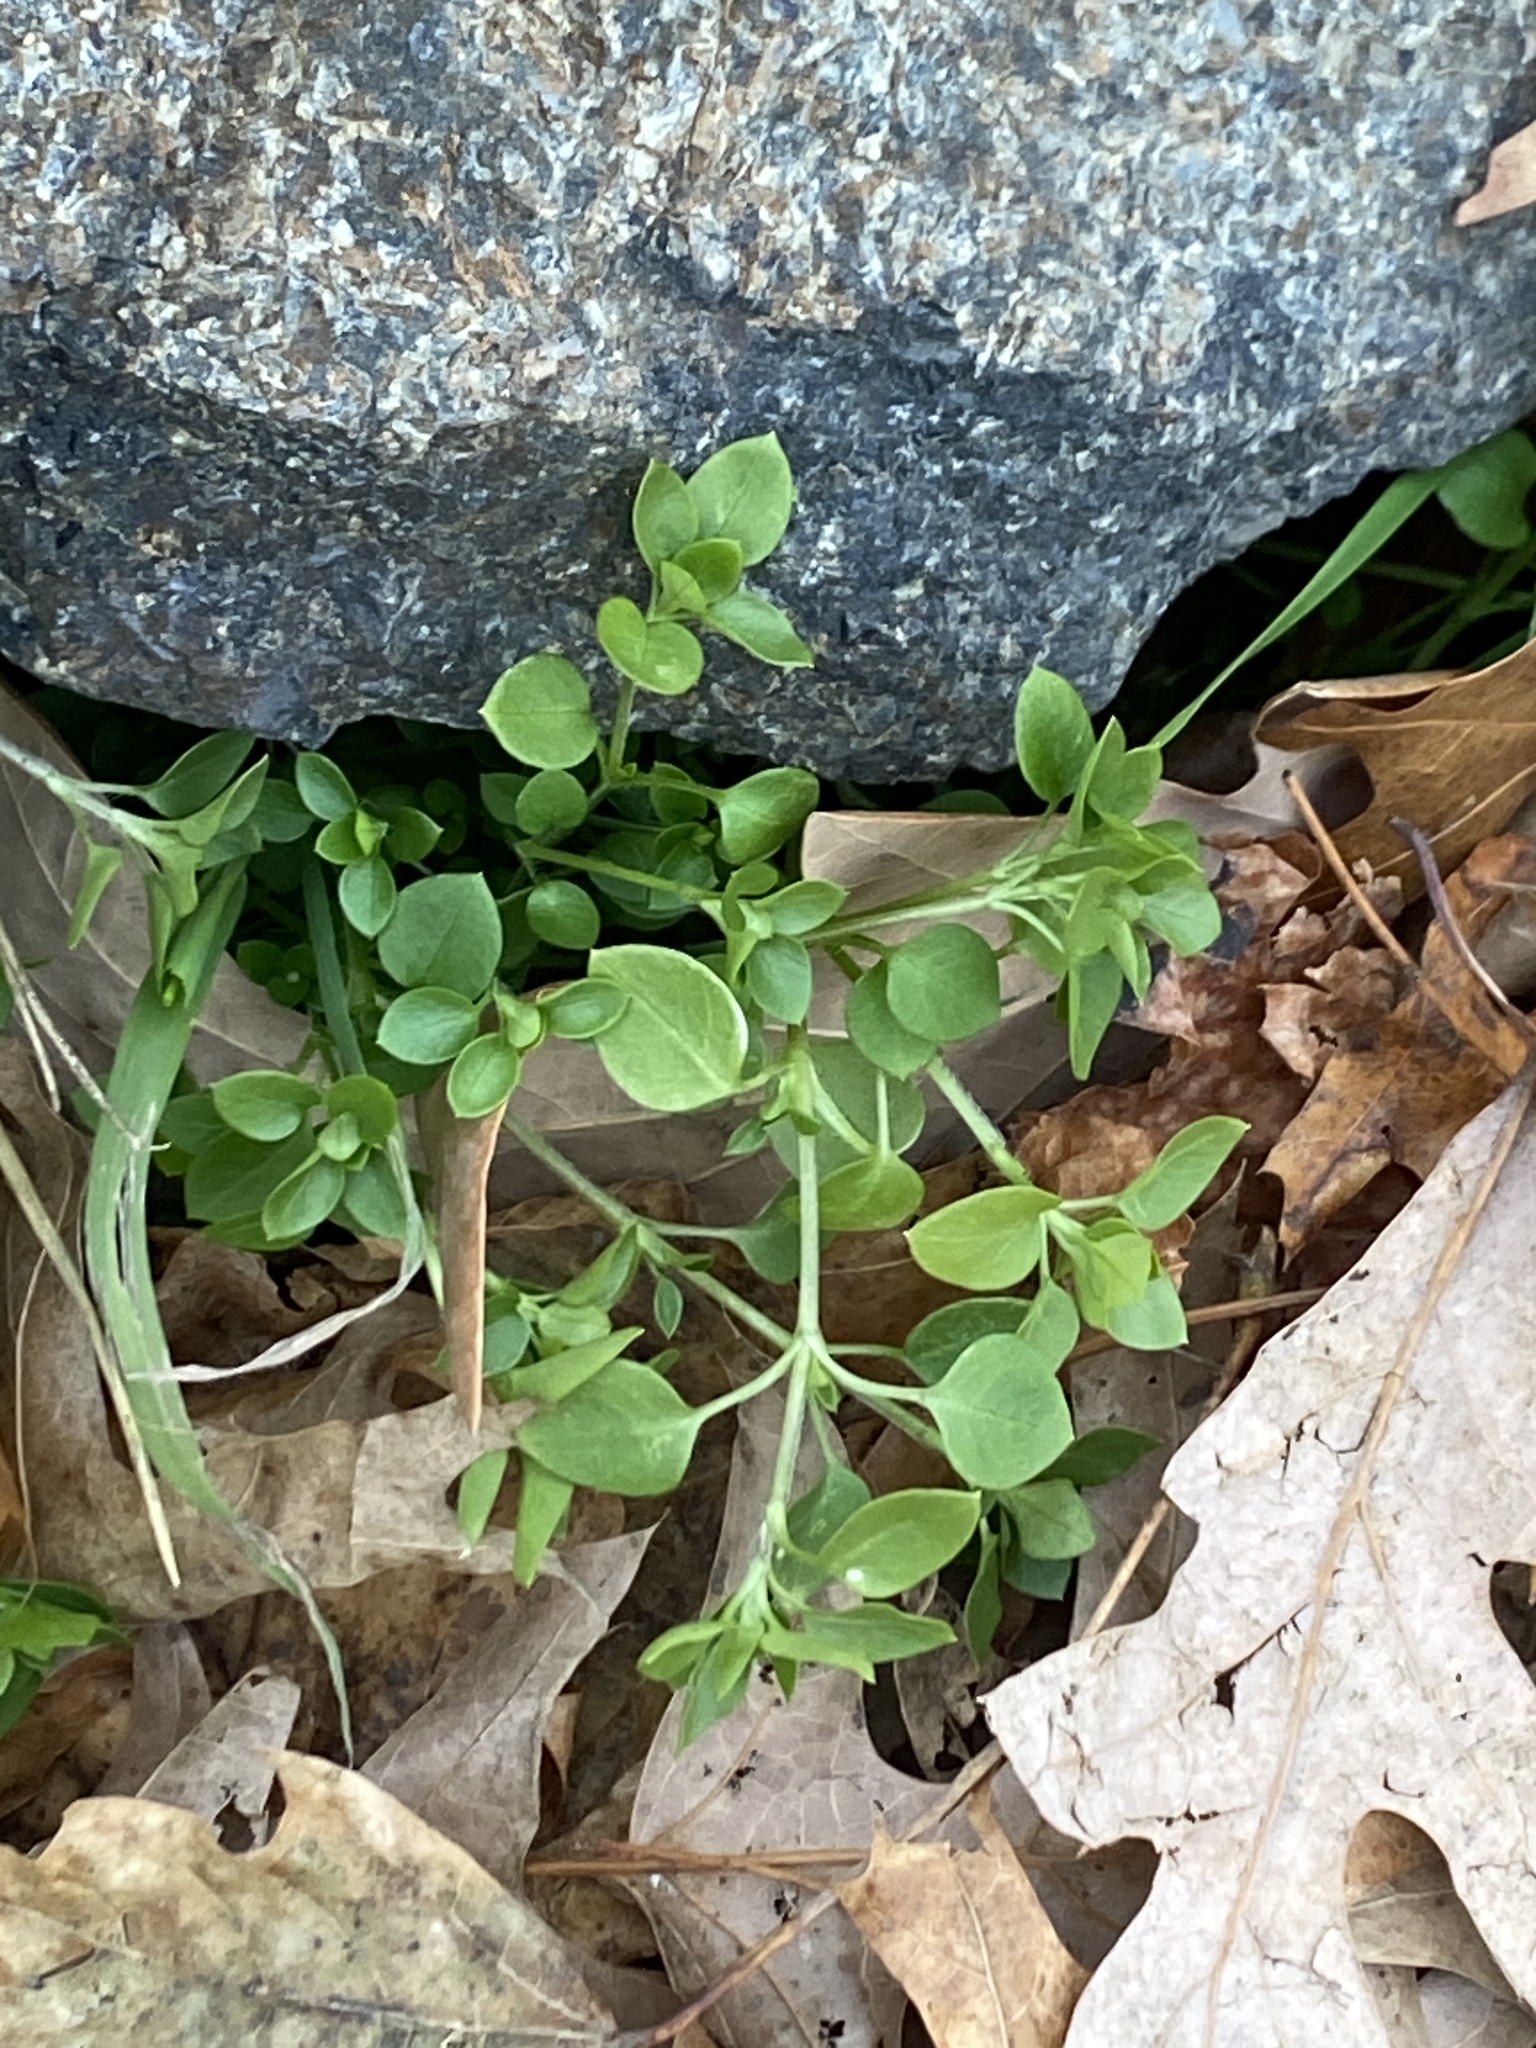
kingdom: Plantae
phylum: Tracheophyta
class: Magnoliopsida
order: Caryophyllales
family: Caryophyllaceae
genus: Stellaria
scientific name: Stellaria media
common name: Common chickweed
